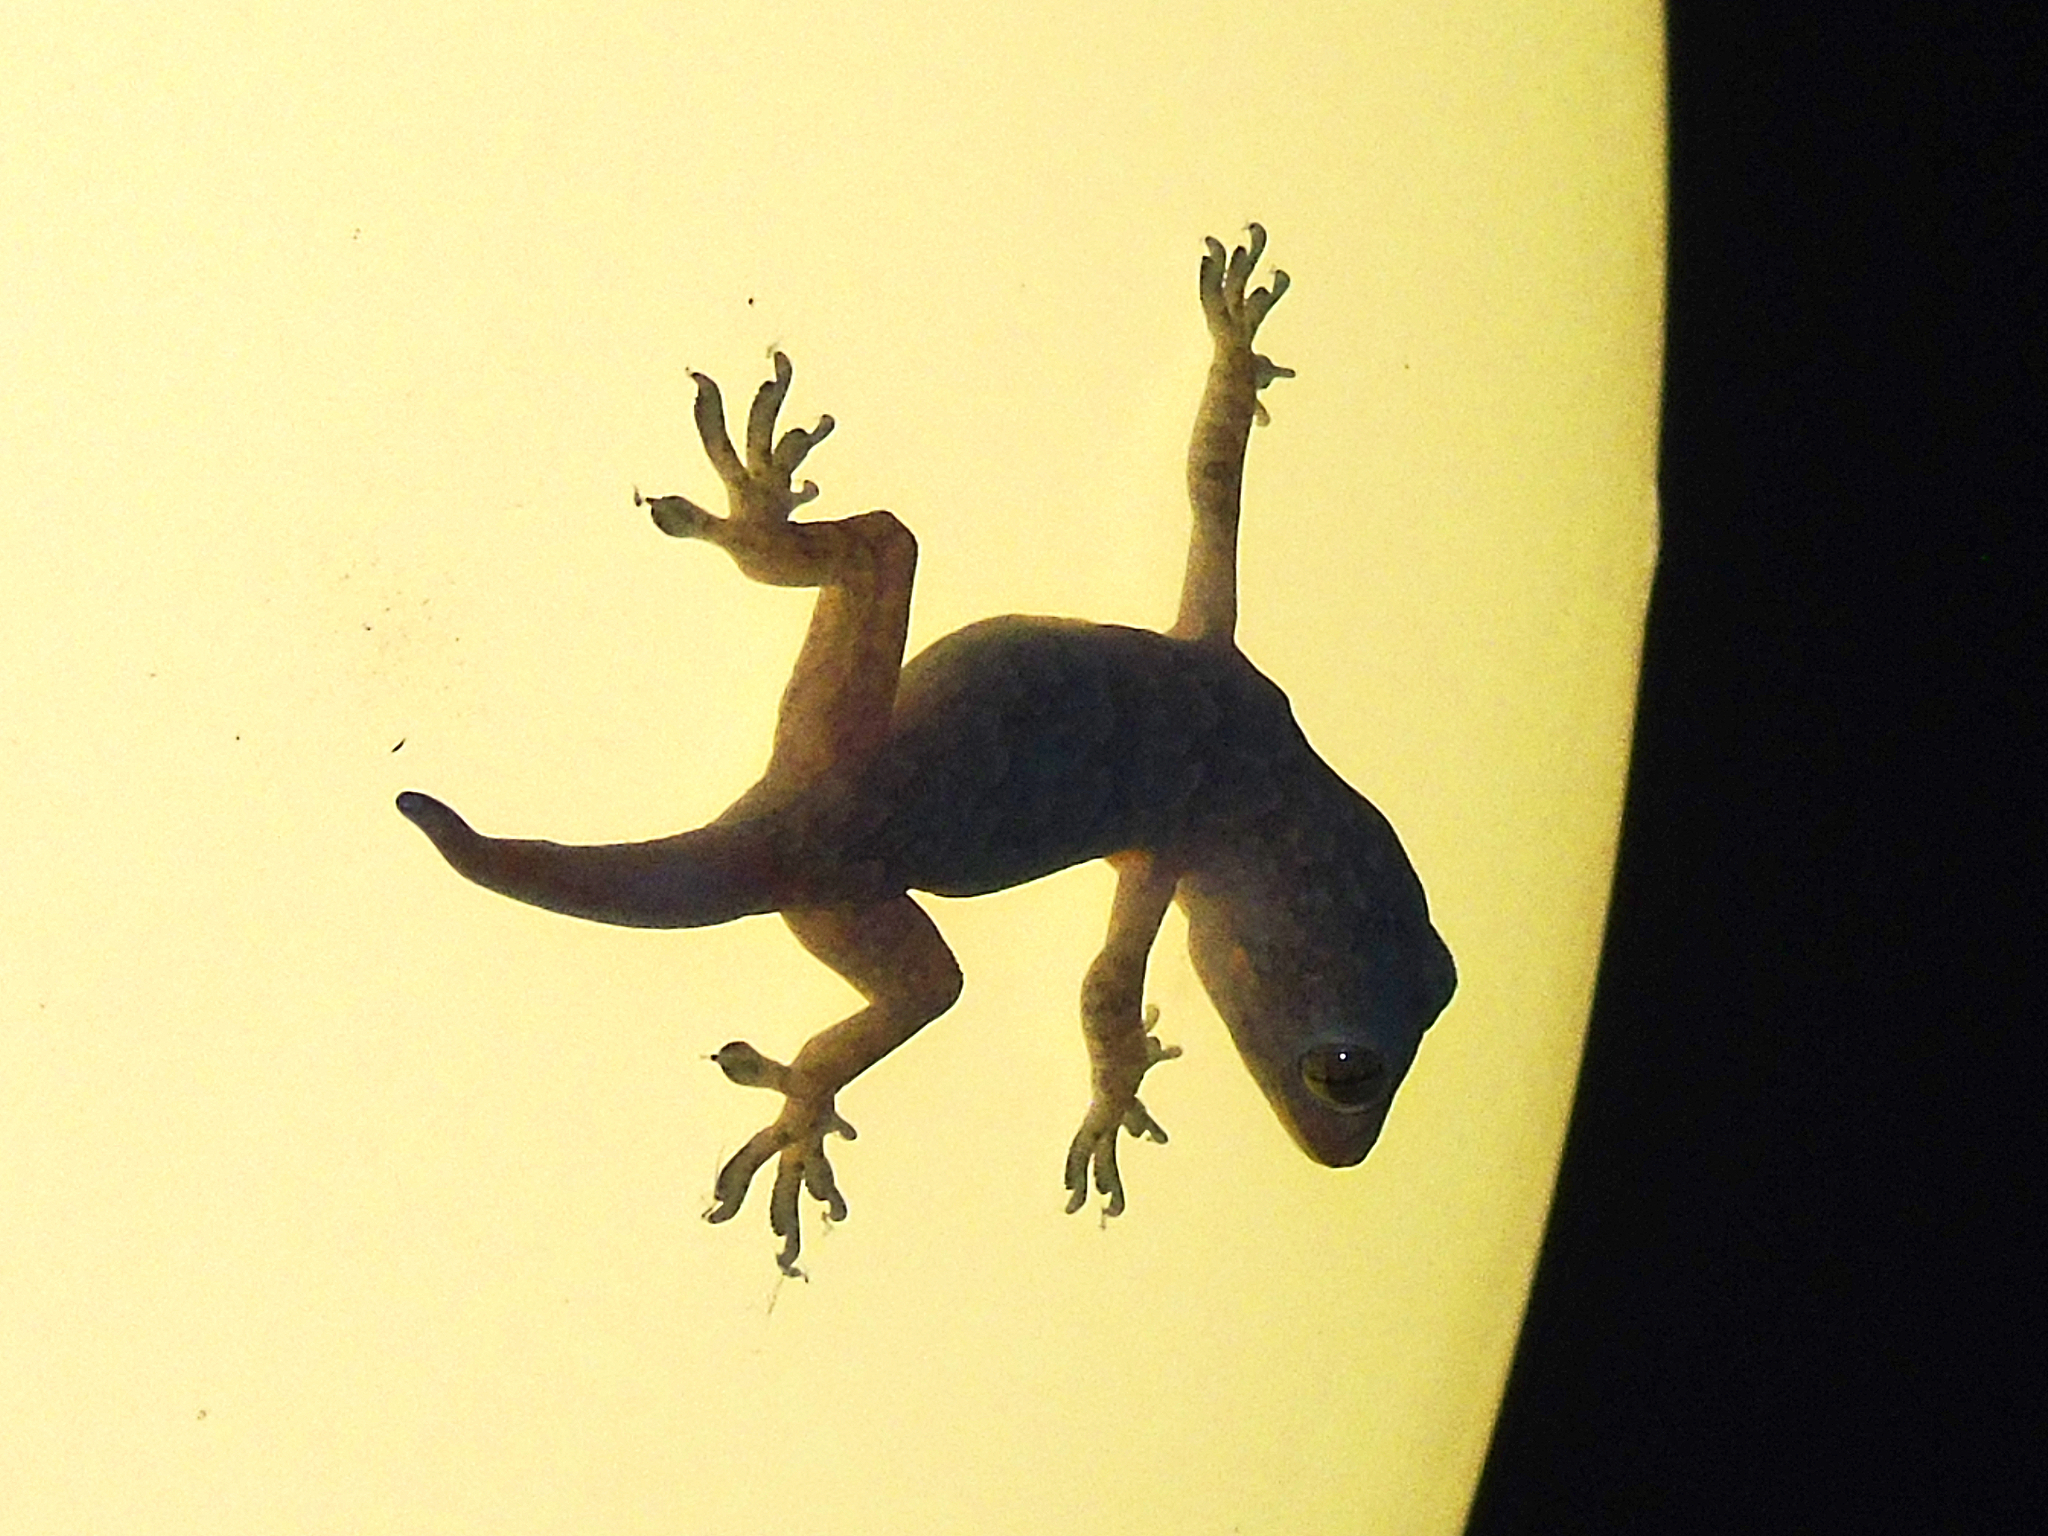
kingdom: Animalia
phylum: Chordata
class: Squamata
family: Gekkonidae
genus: Hemidactylus
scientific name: Hemidactylus flaviviridis
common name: Northern house gecko
